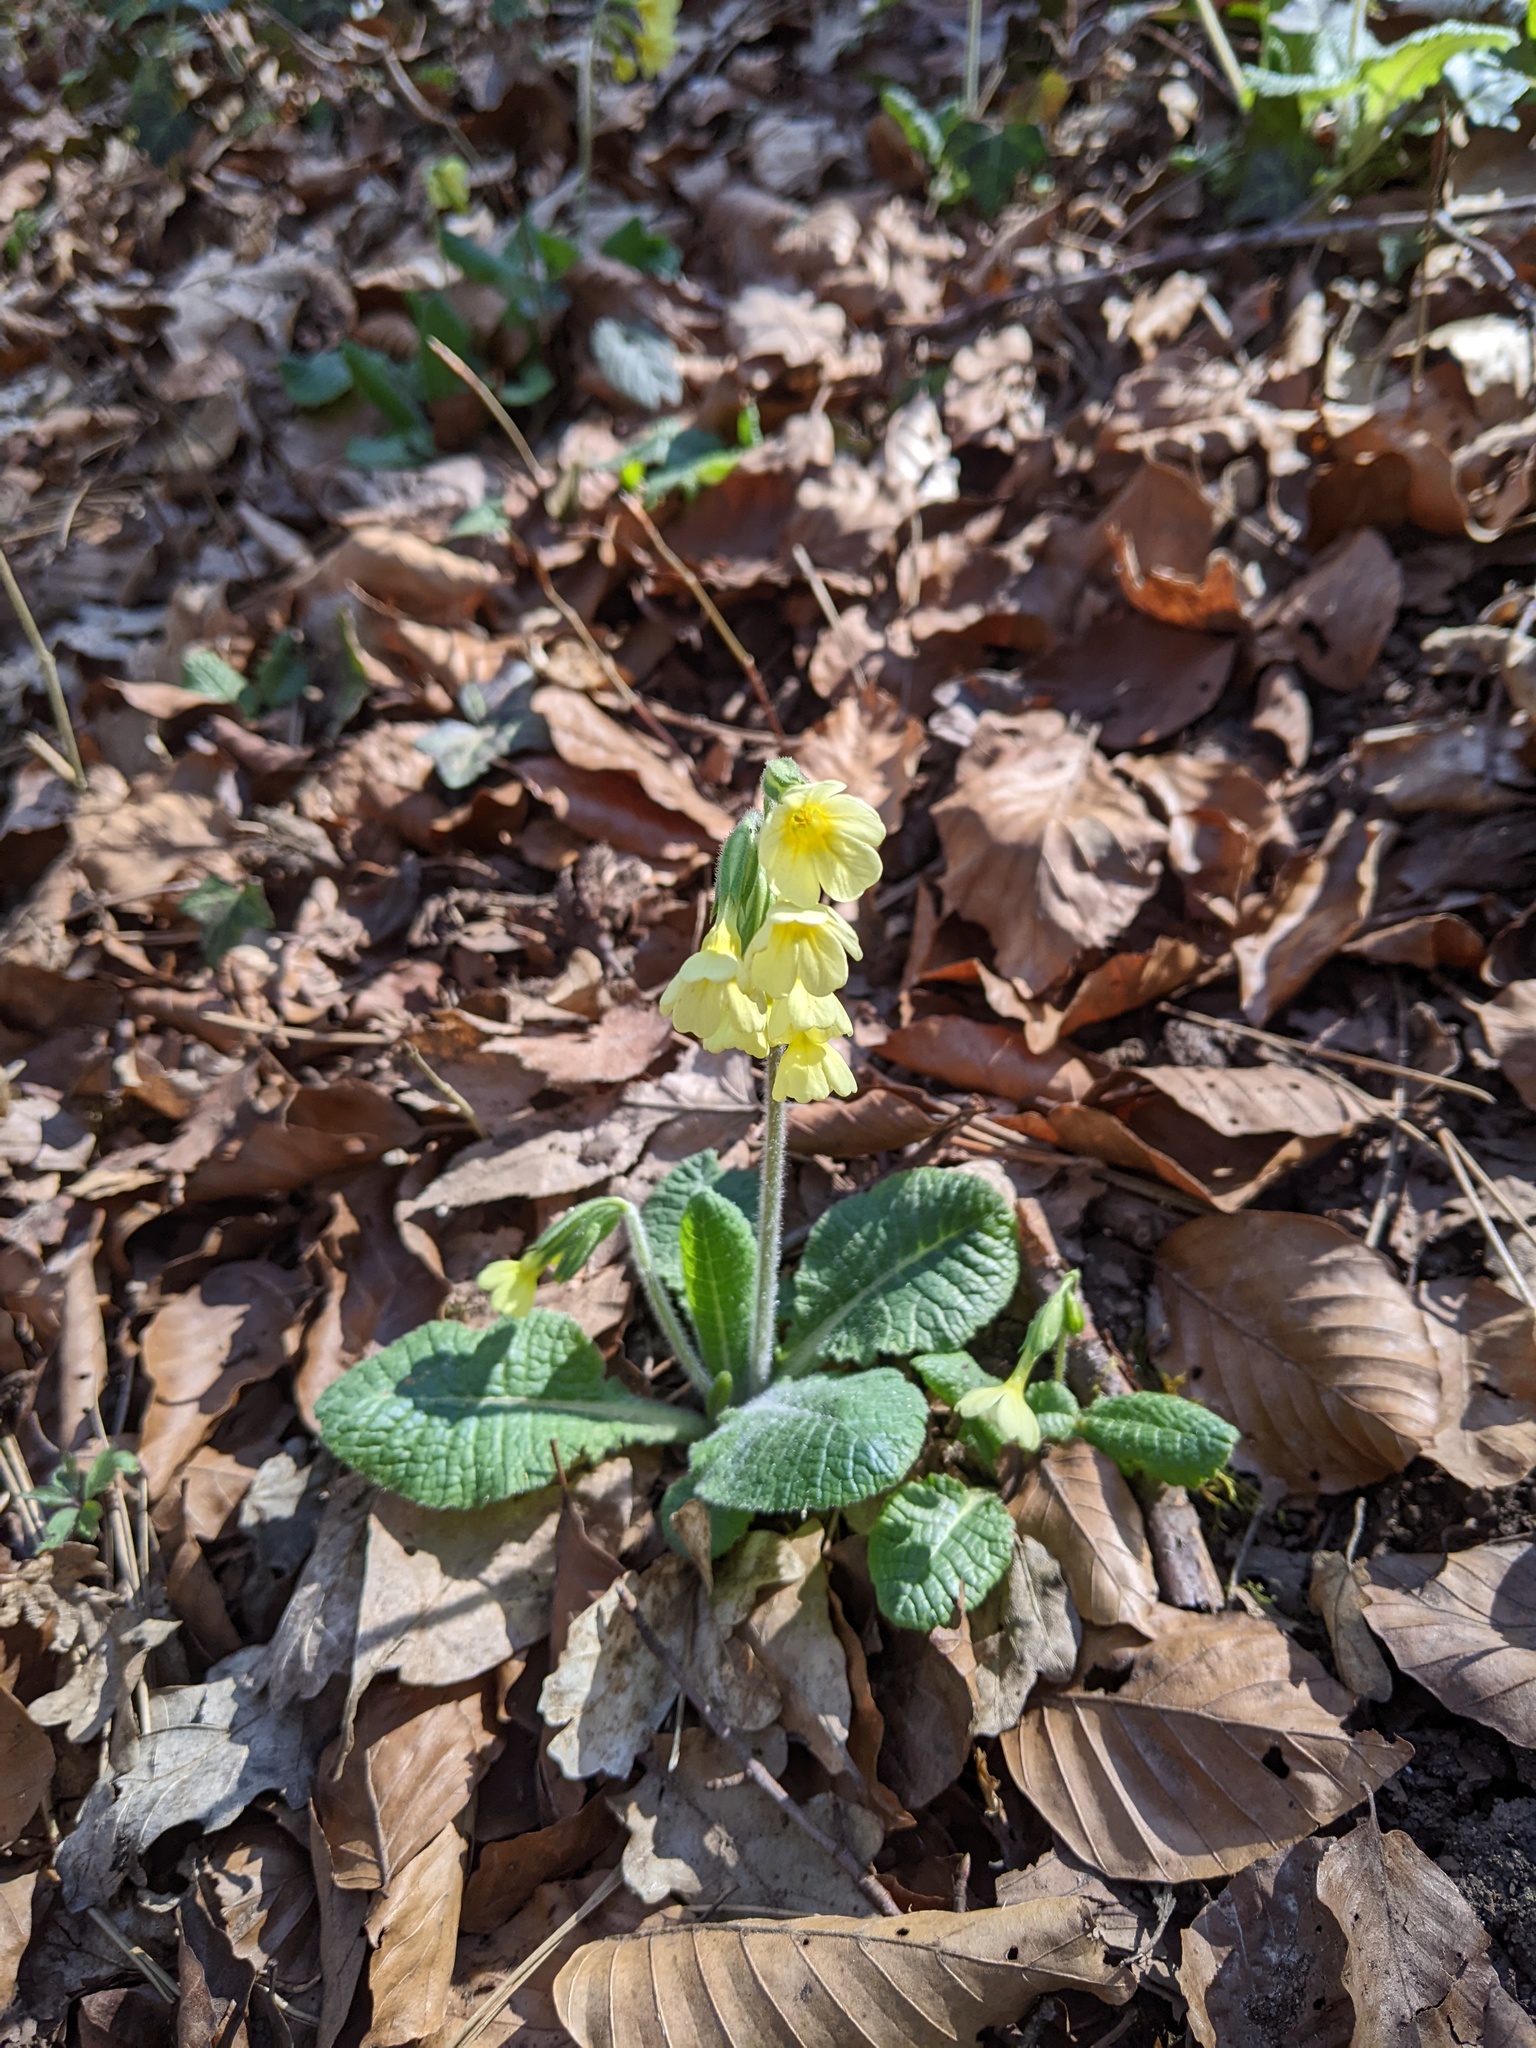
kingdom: Plantae
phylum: Tracheophyta
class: Magnoliopsida
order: Ericales
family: Primulaceae
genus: Primula
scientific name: Primula elatior
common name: Oxlip
